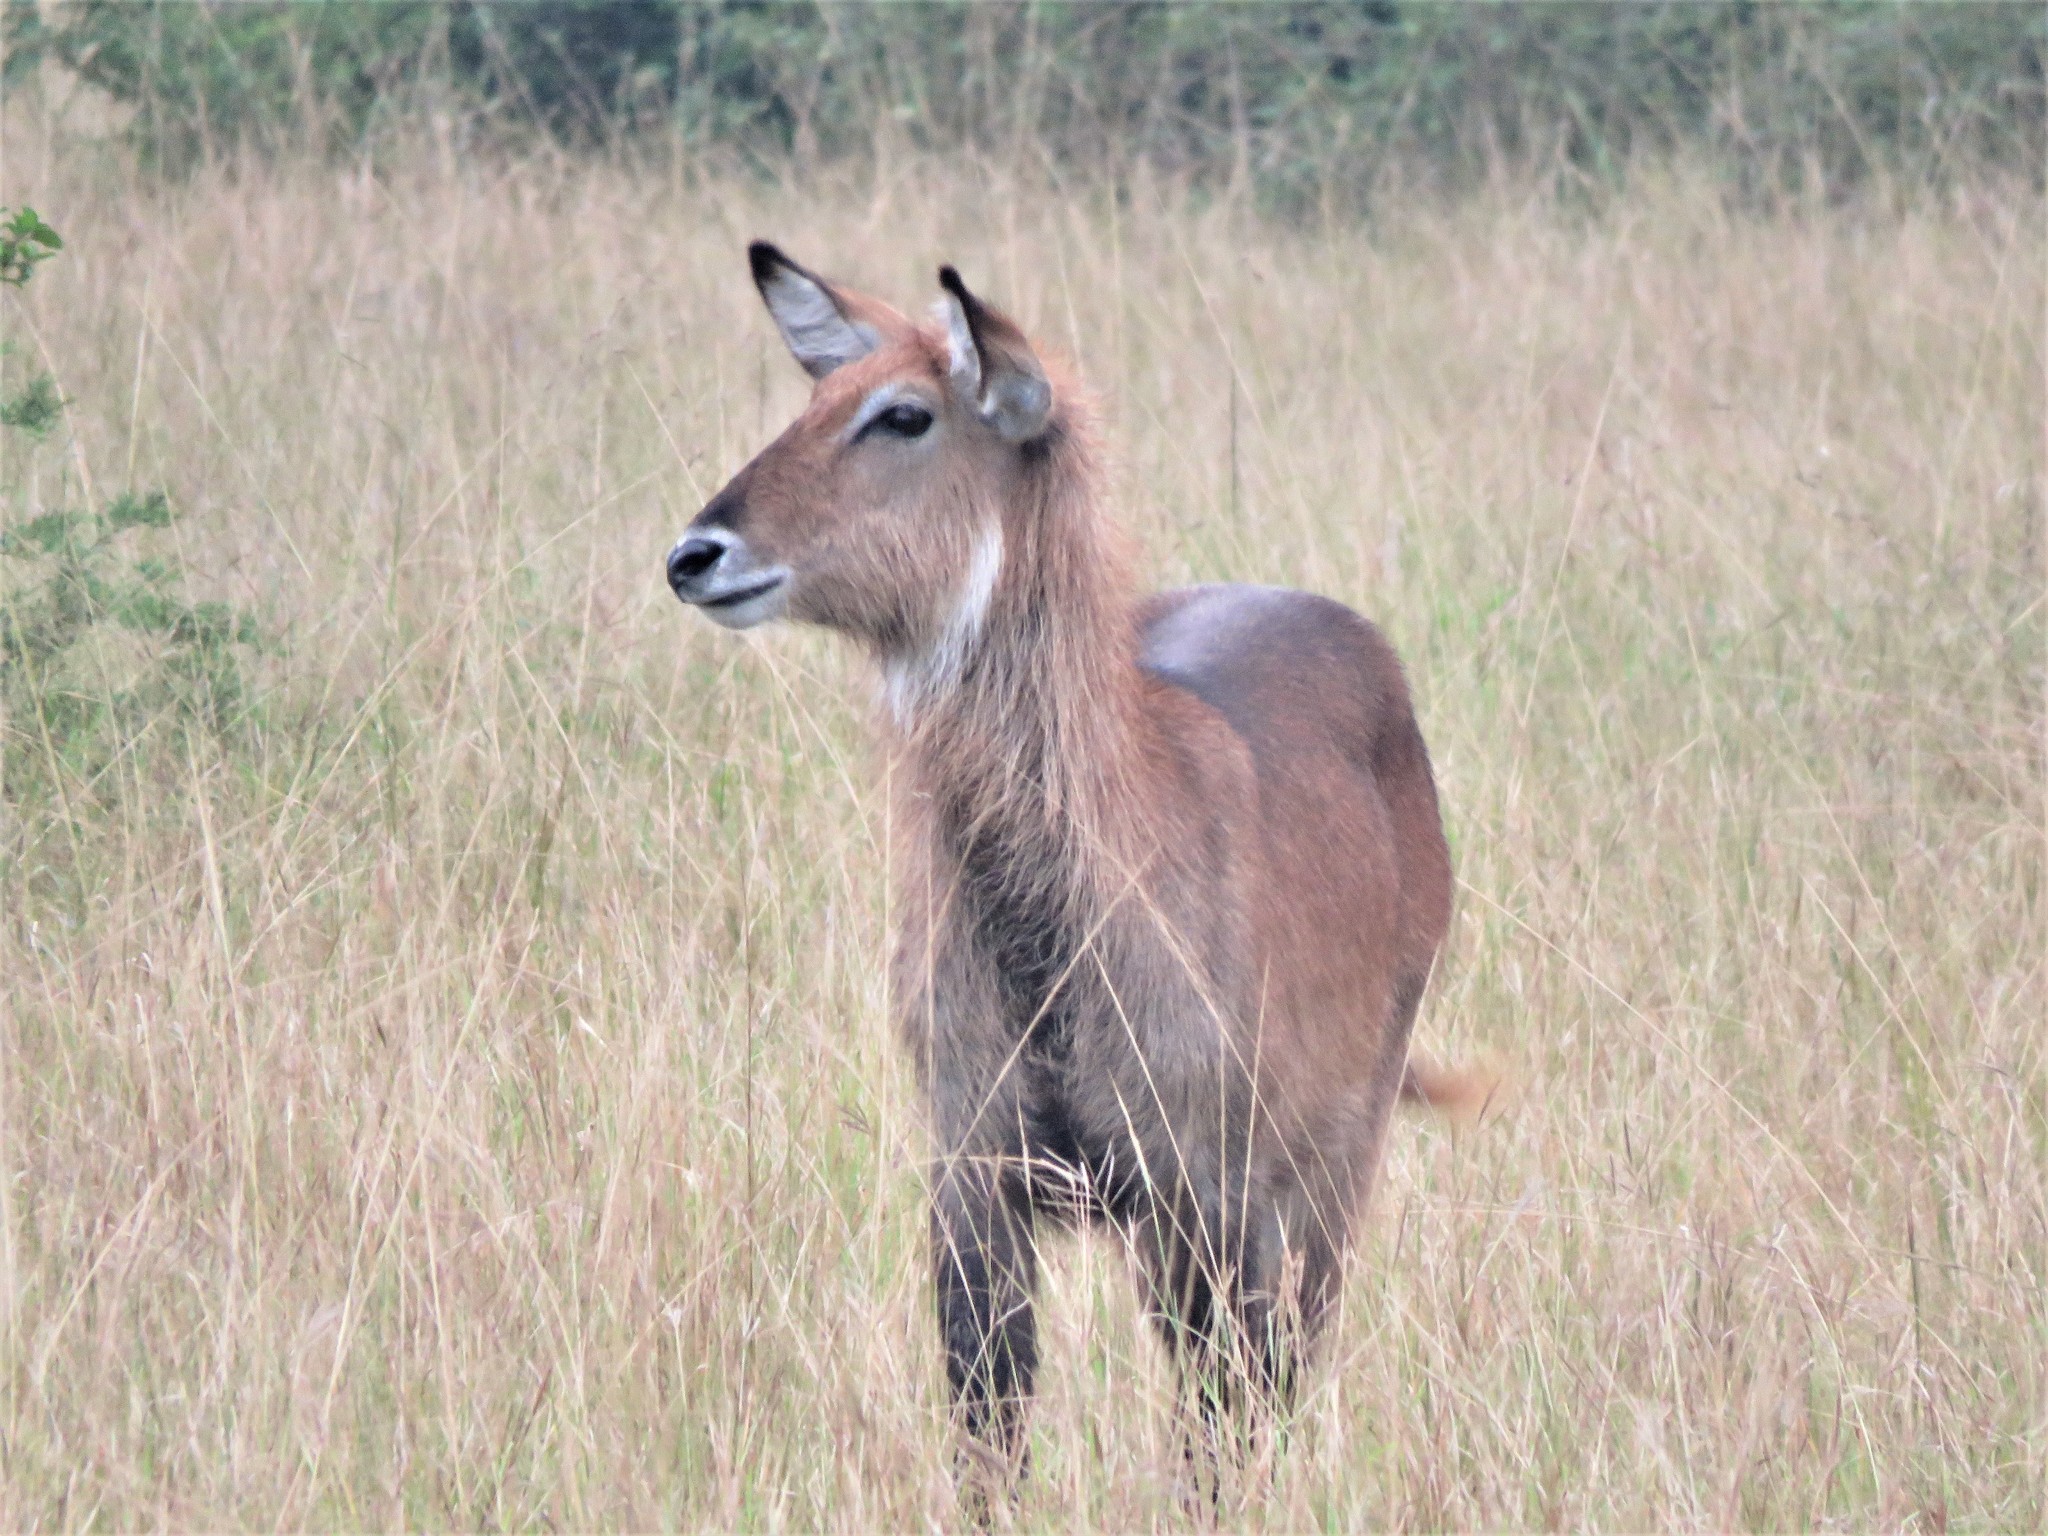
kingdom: Animalia
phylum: Chordata
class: Mammalia
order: Artiodactyla
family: Bovidae
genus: Kobus
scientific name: Kobus ellipsiprymnus
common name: Waterbuck
